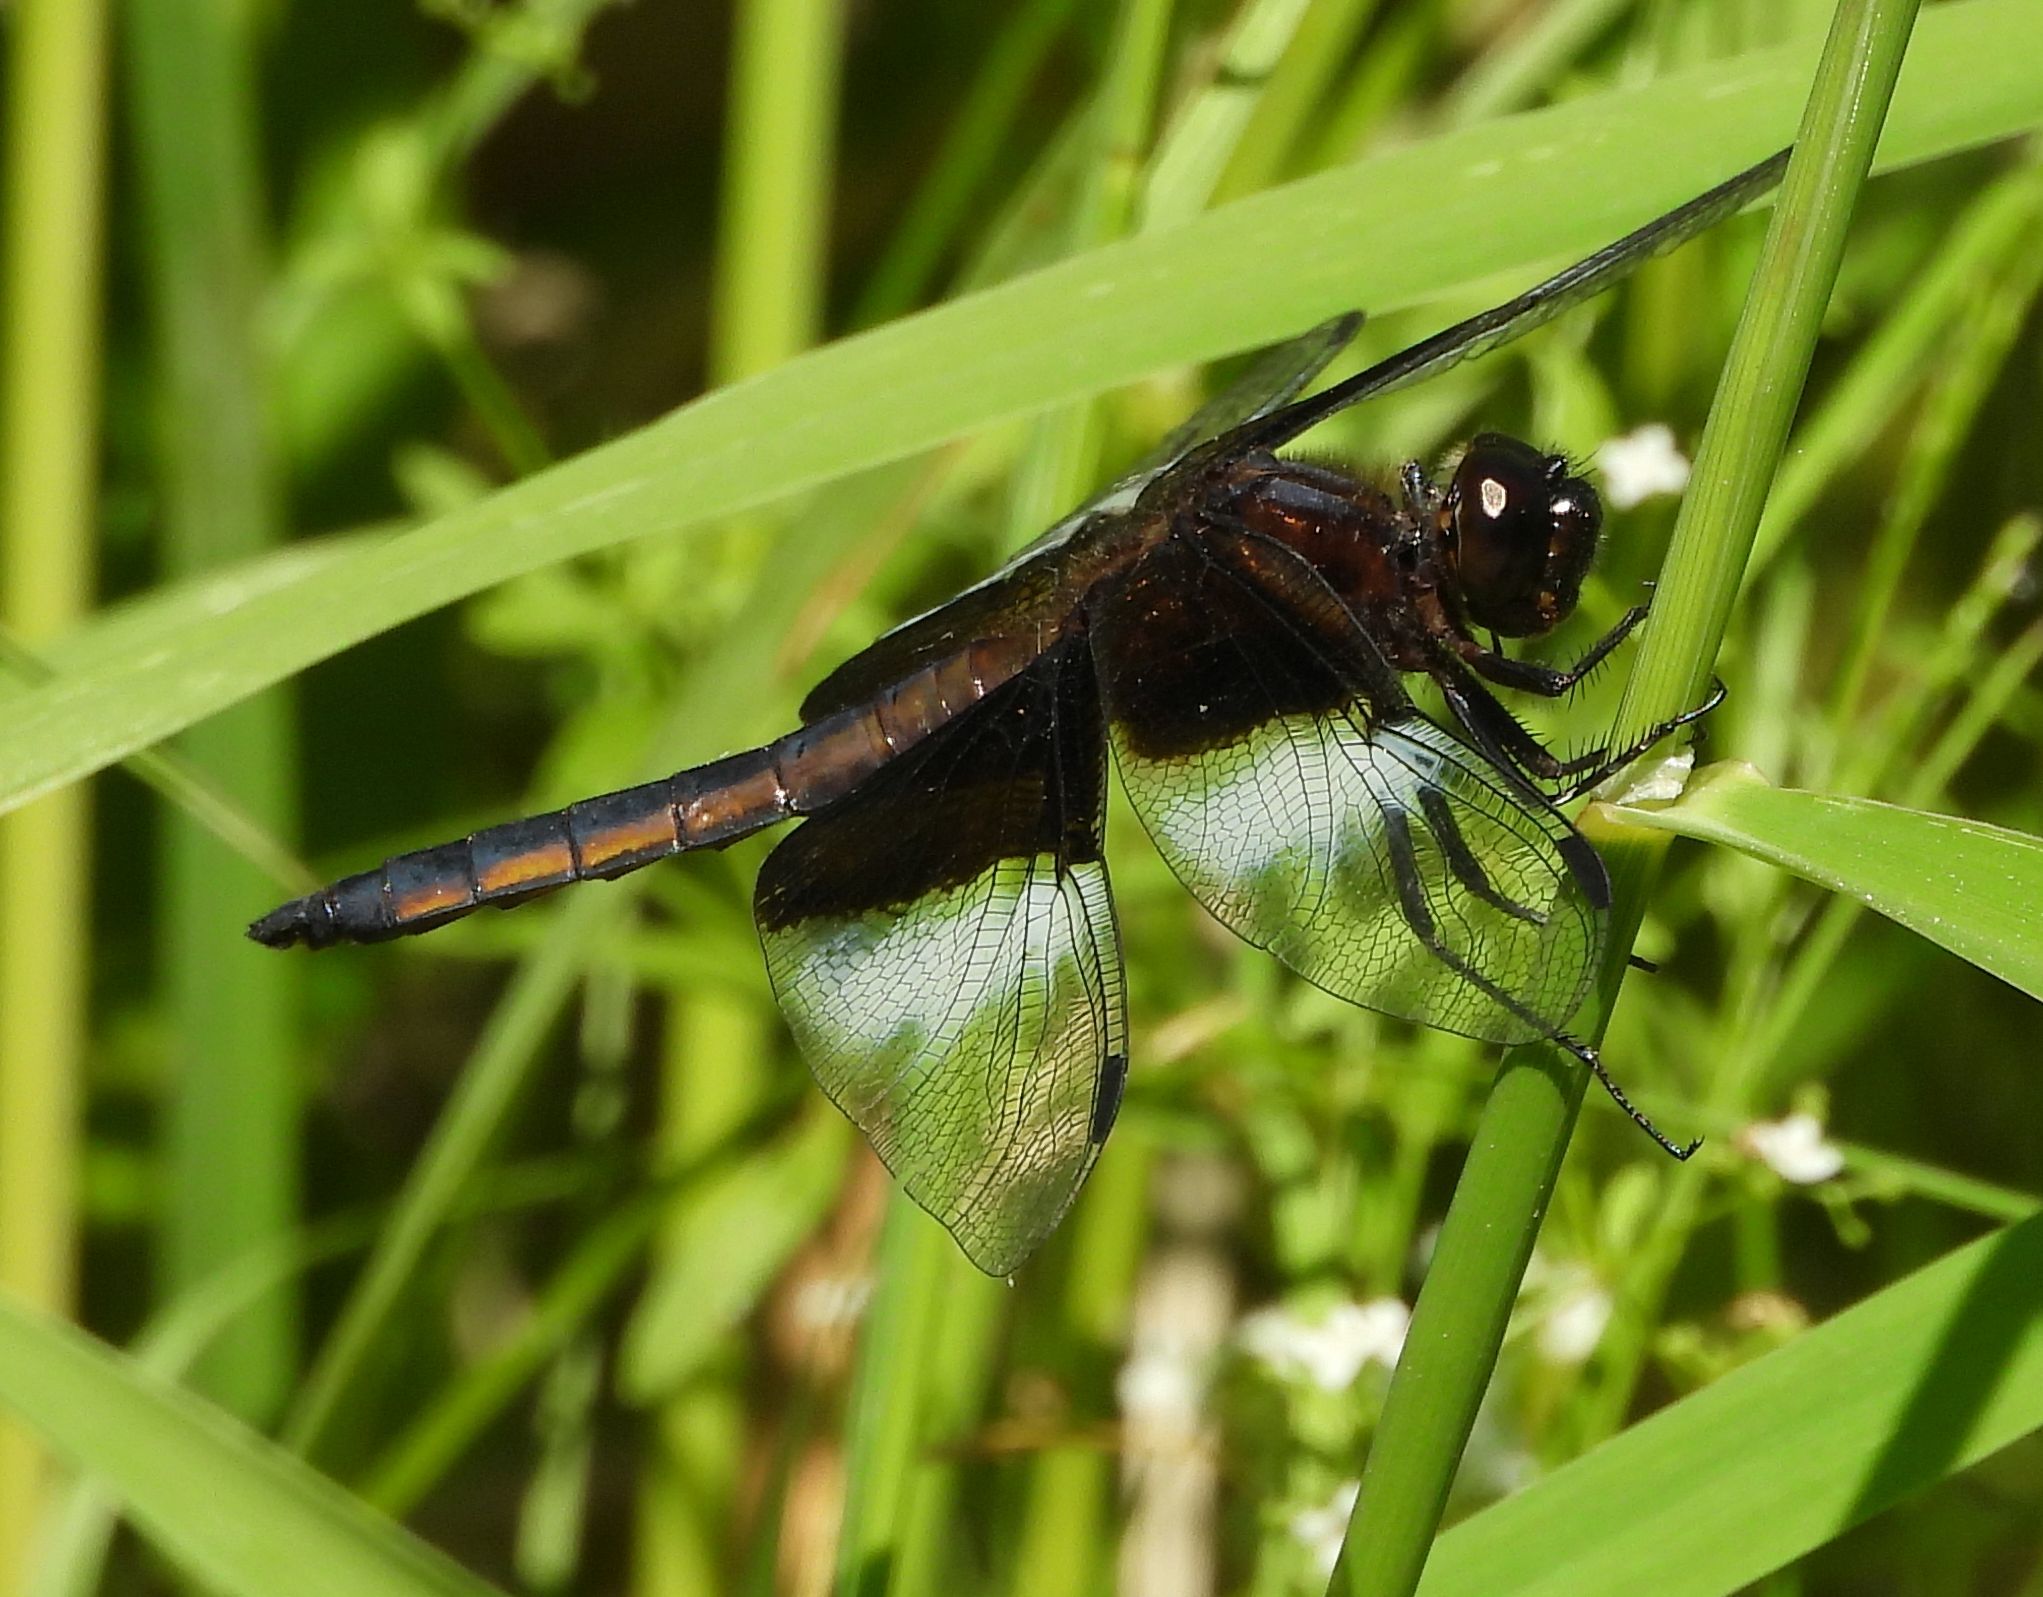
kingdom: Animalia
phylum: Arthropoda
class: Insecta
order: Odonata
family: Libellulidae
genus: Libellula
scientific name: Libellula luctuosa
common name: Widow skimmer
